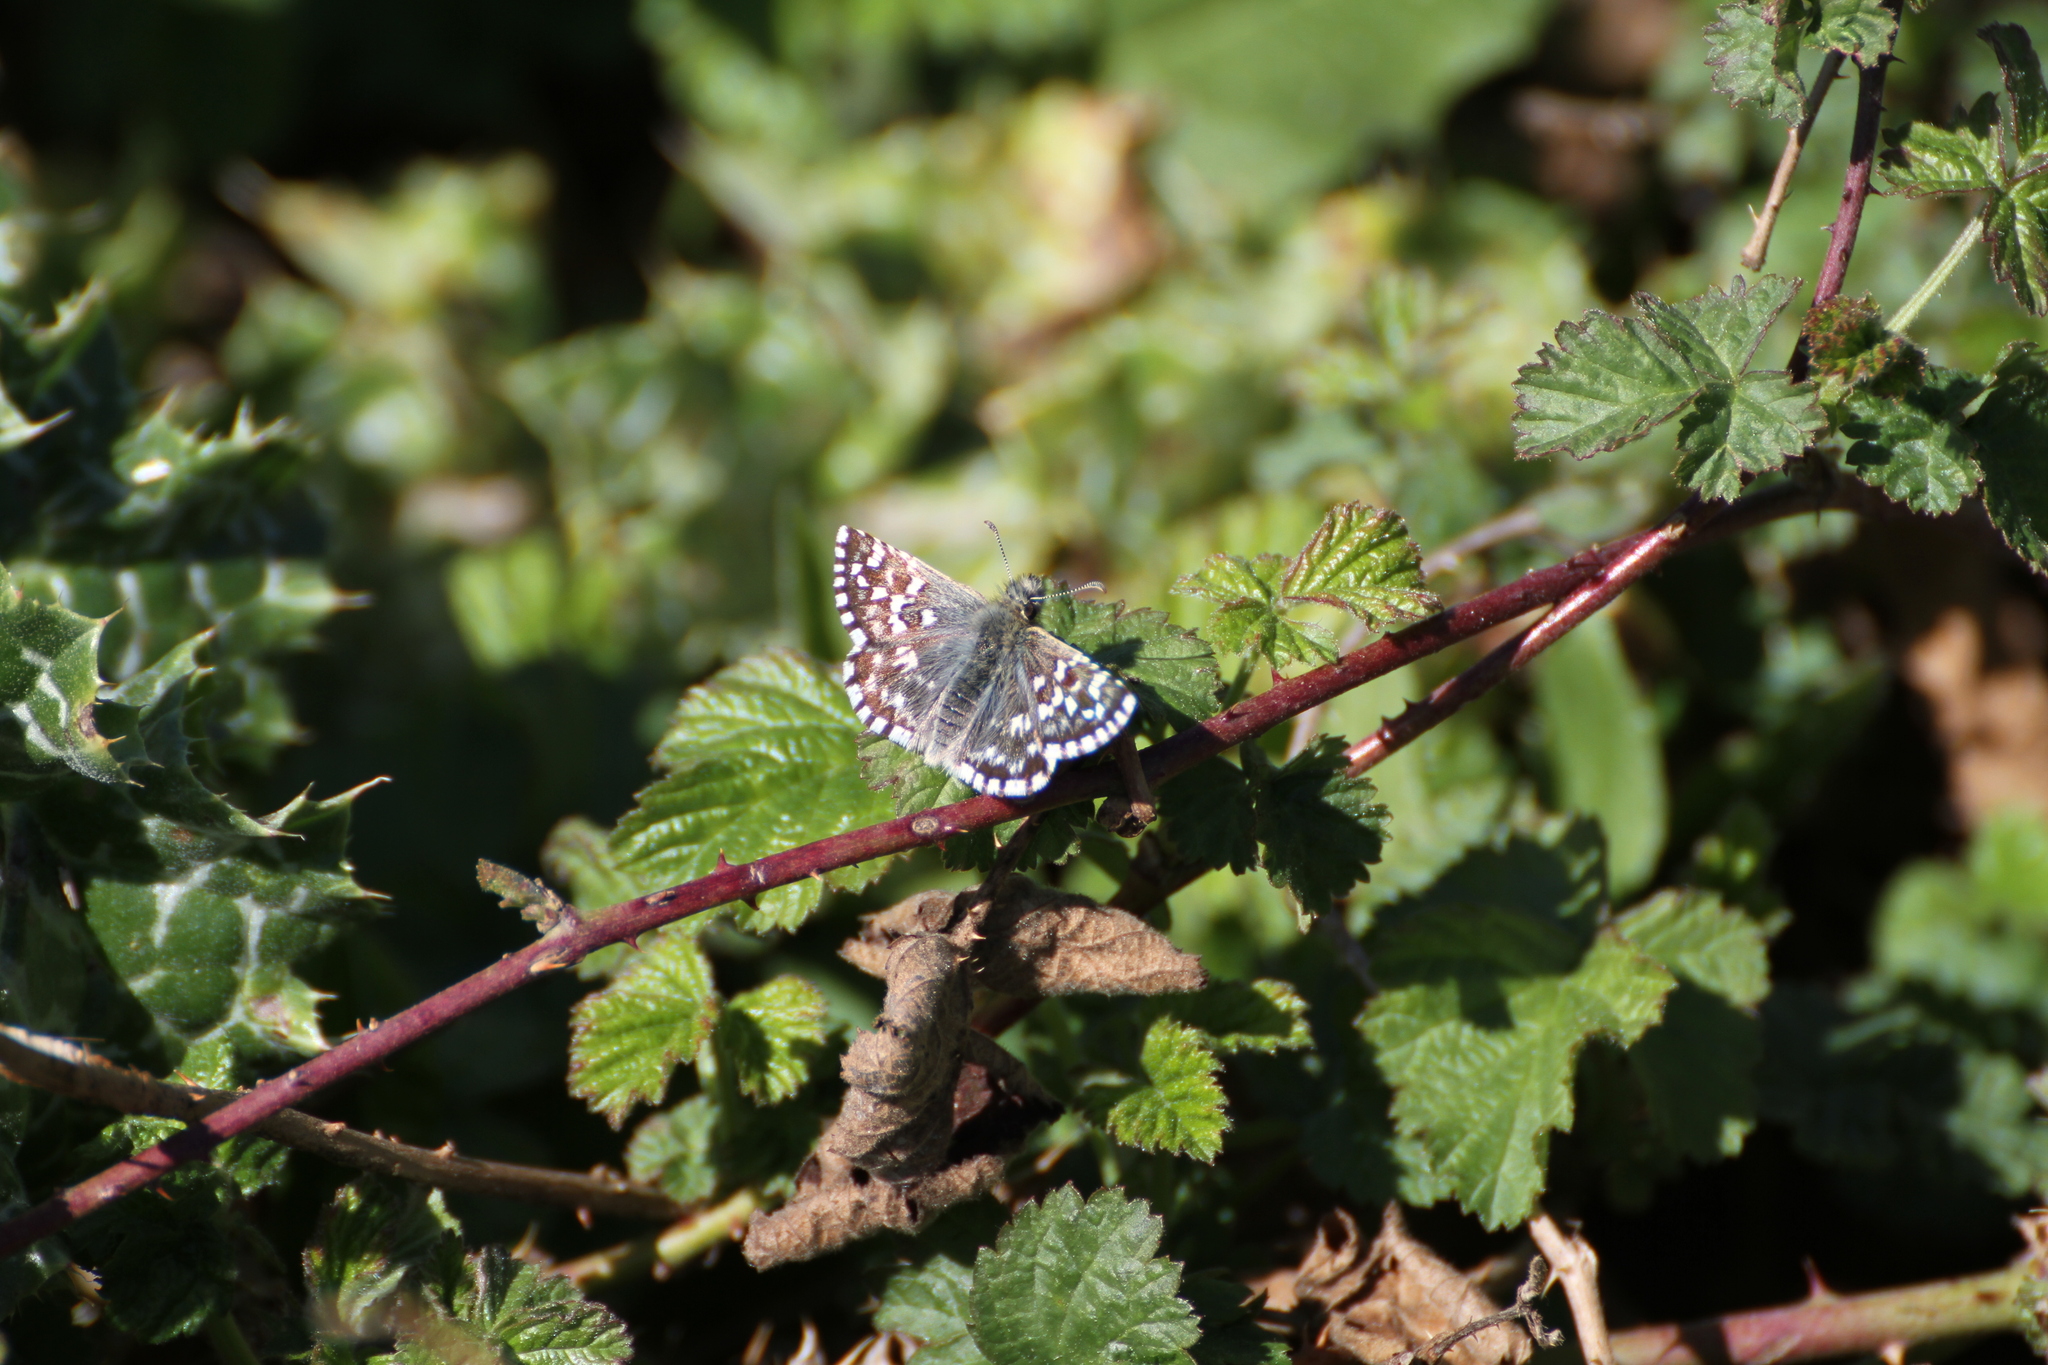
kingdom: Animalia
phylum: Arthropoda
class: Insecta
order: Lepidoptera
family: Hesperiidae
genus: Pyrgus
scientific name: Pyrgus malvoides
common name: Southern grizzled skipper
